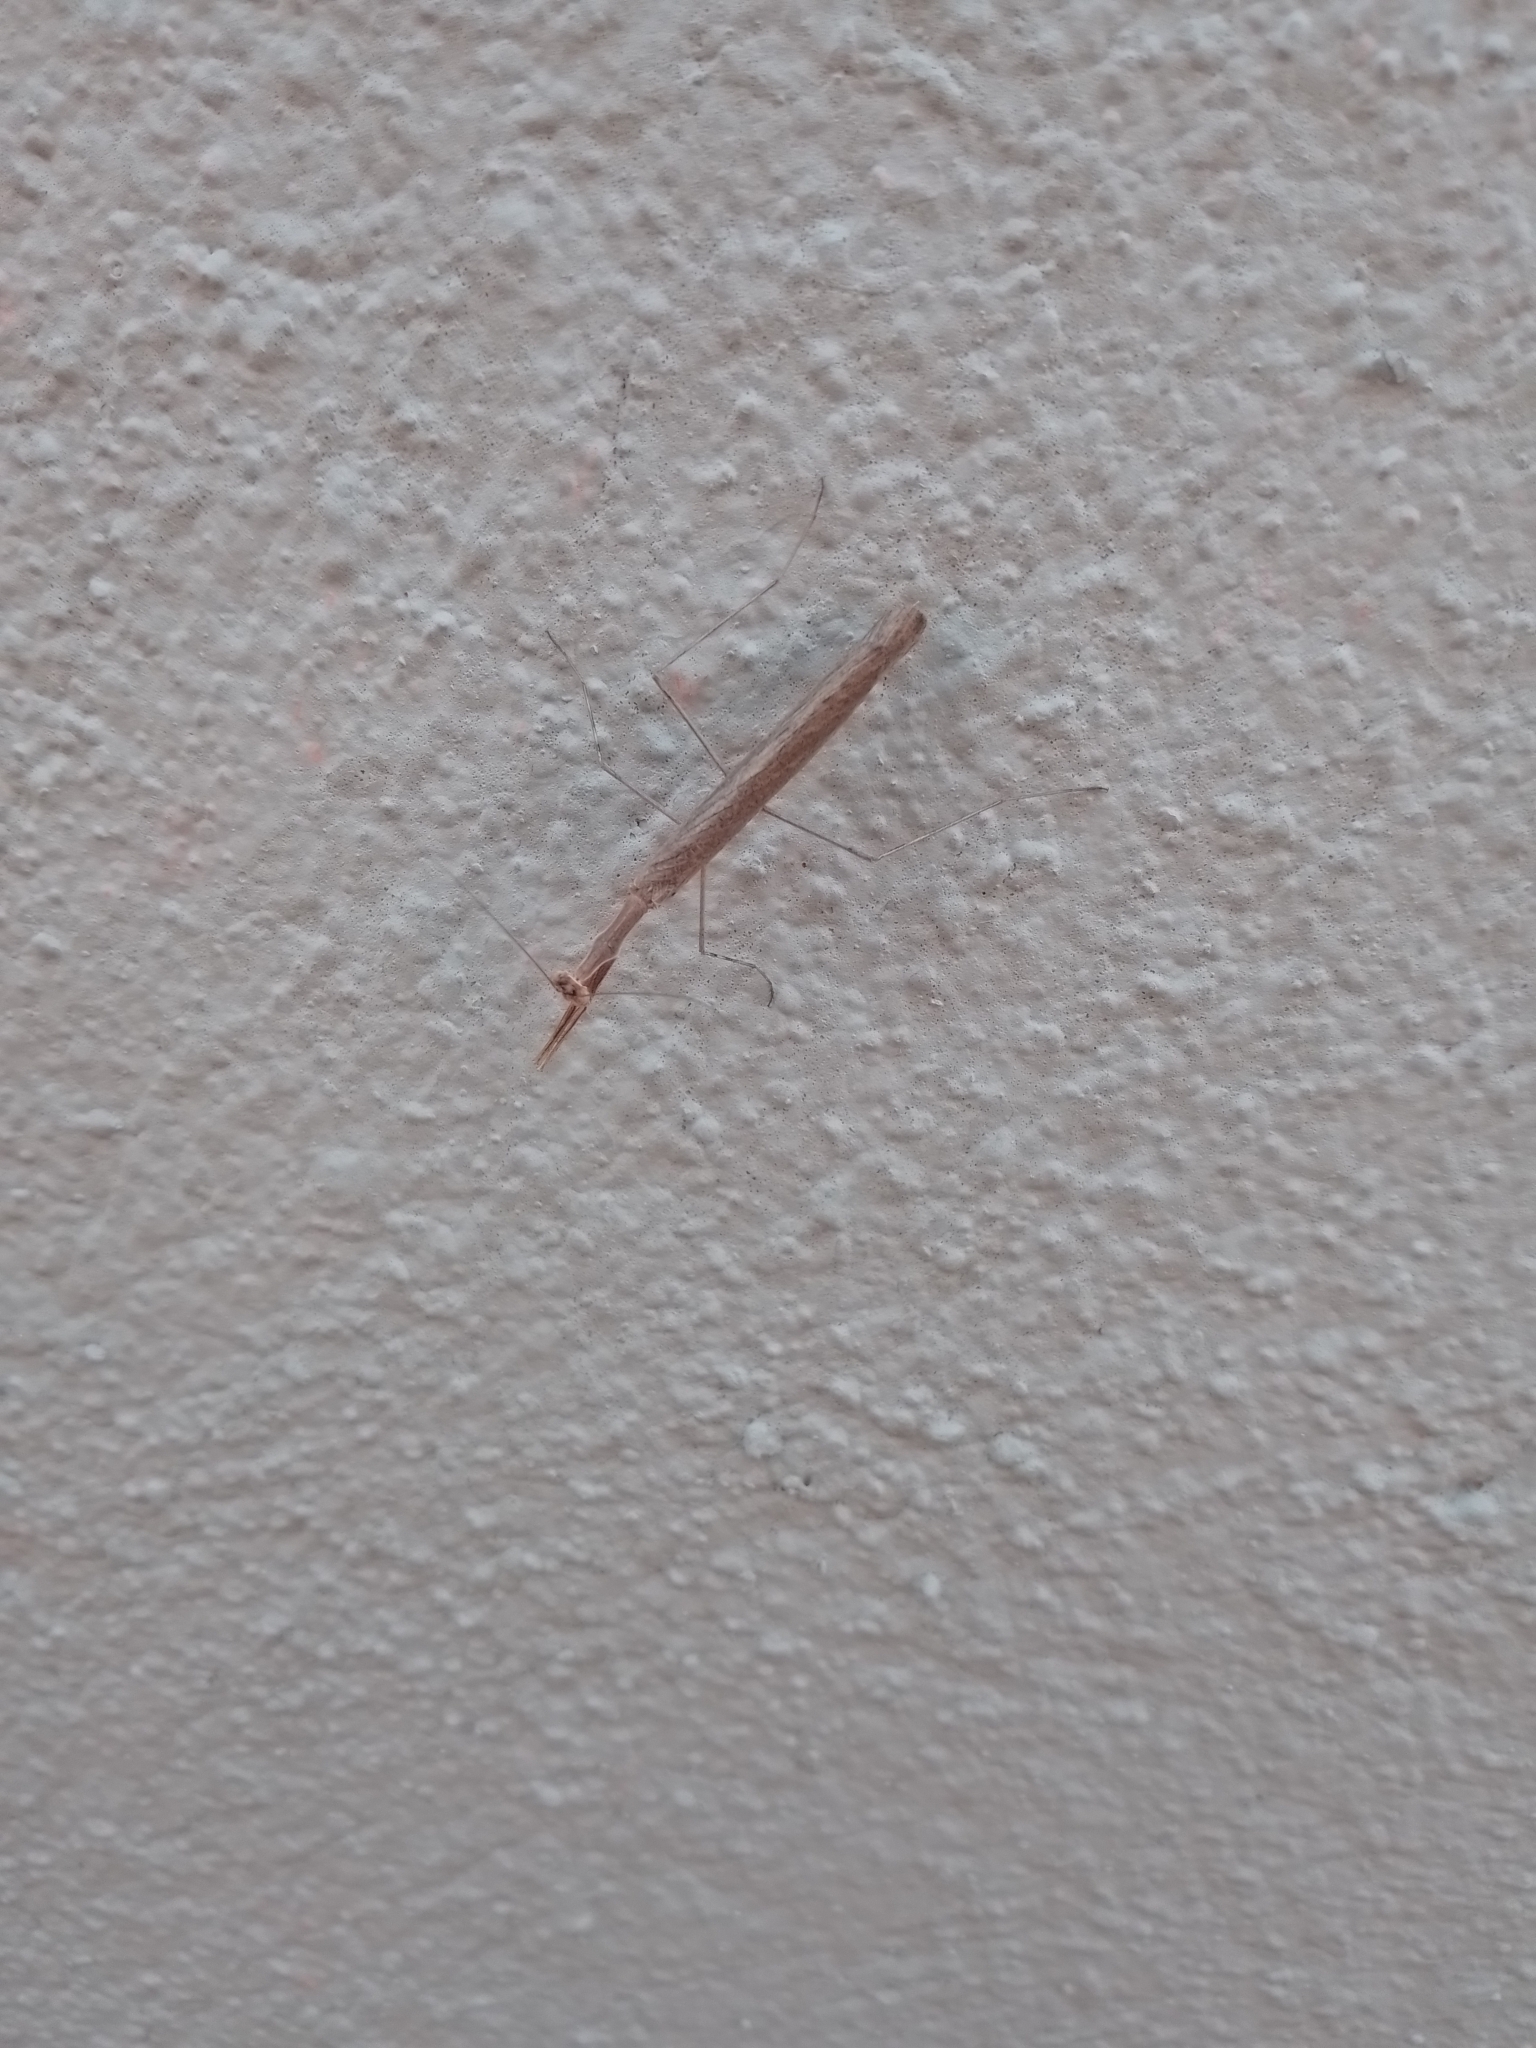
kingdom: Animalia
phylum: Arthropoda
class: Insecta
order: Mantodea
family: Thespidae
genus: Thespis
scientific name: Thespis parva
